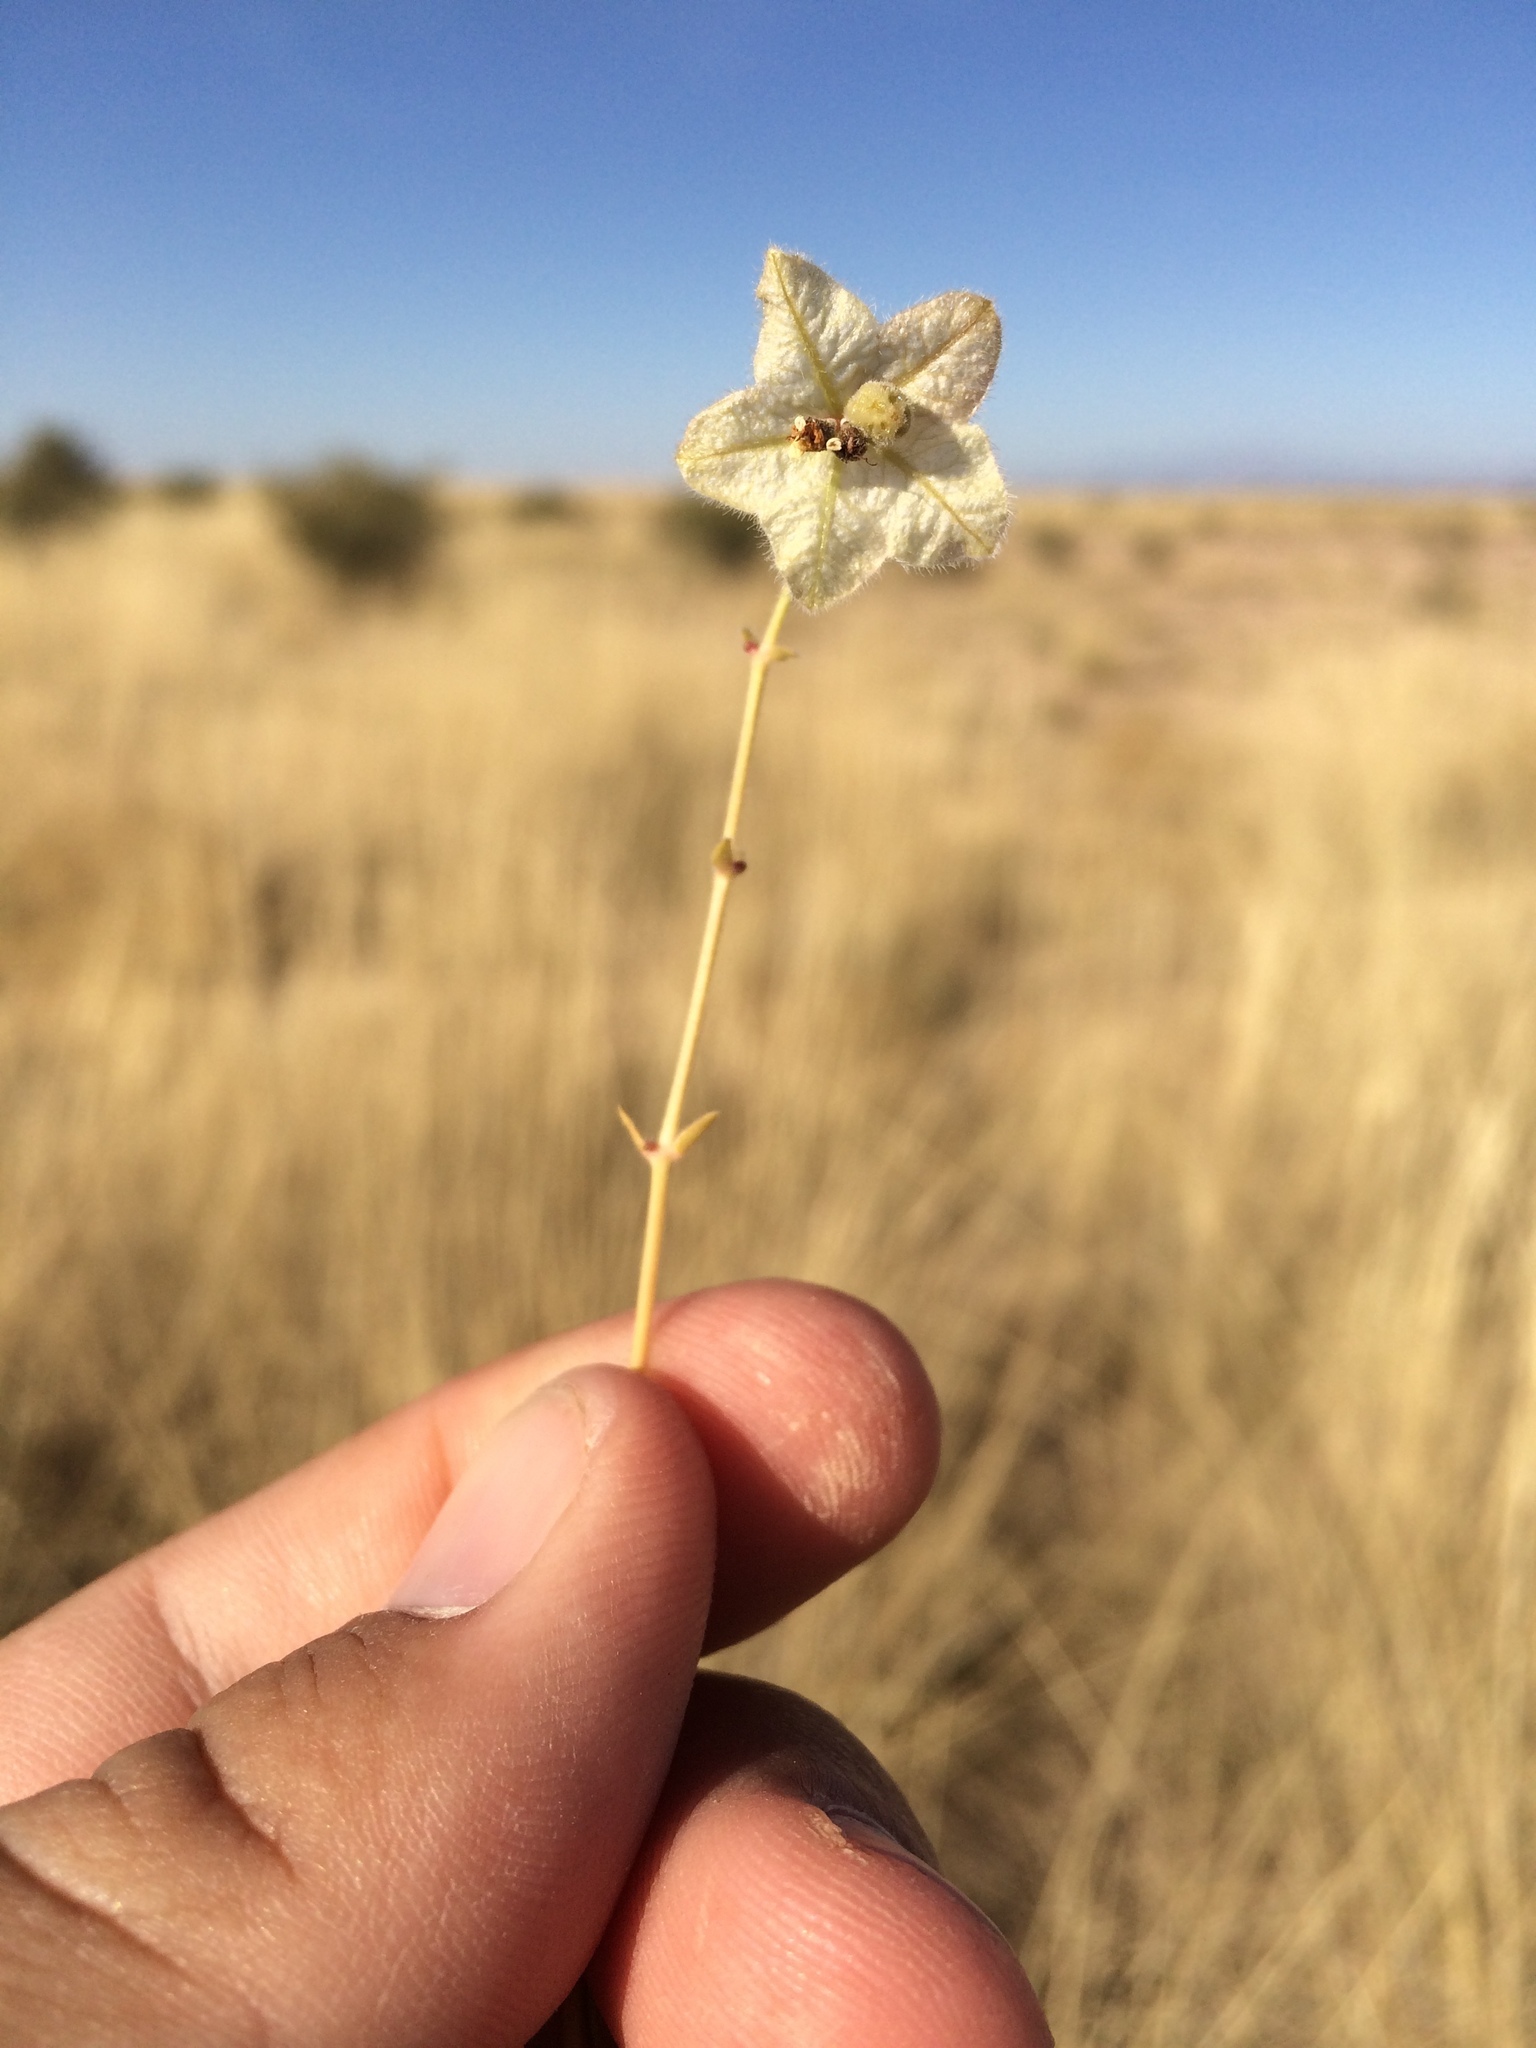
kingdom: Plantae
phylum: Tracheophyta
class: Magnoliopsida
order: Caryophyllales
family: Nyctaginaceae
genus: Mirabilis
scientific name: Mirabilis linearis
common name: Linear-leaved four-o'clock
